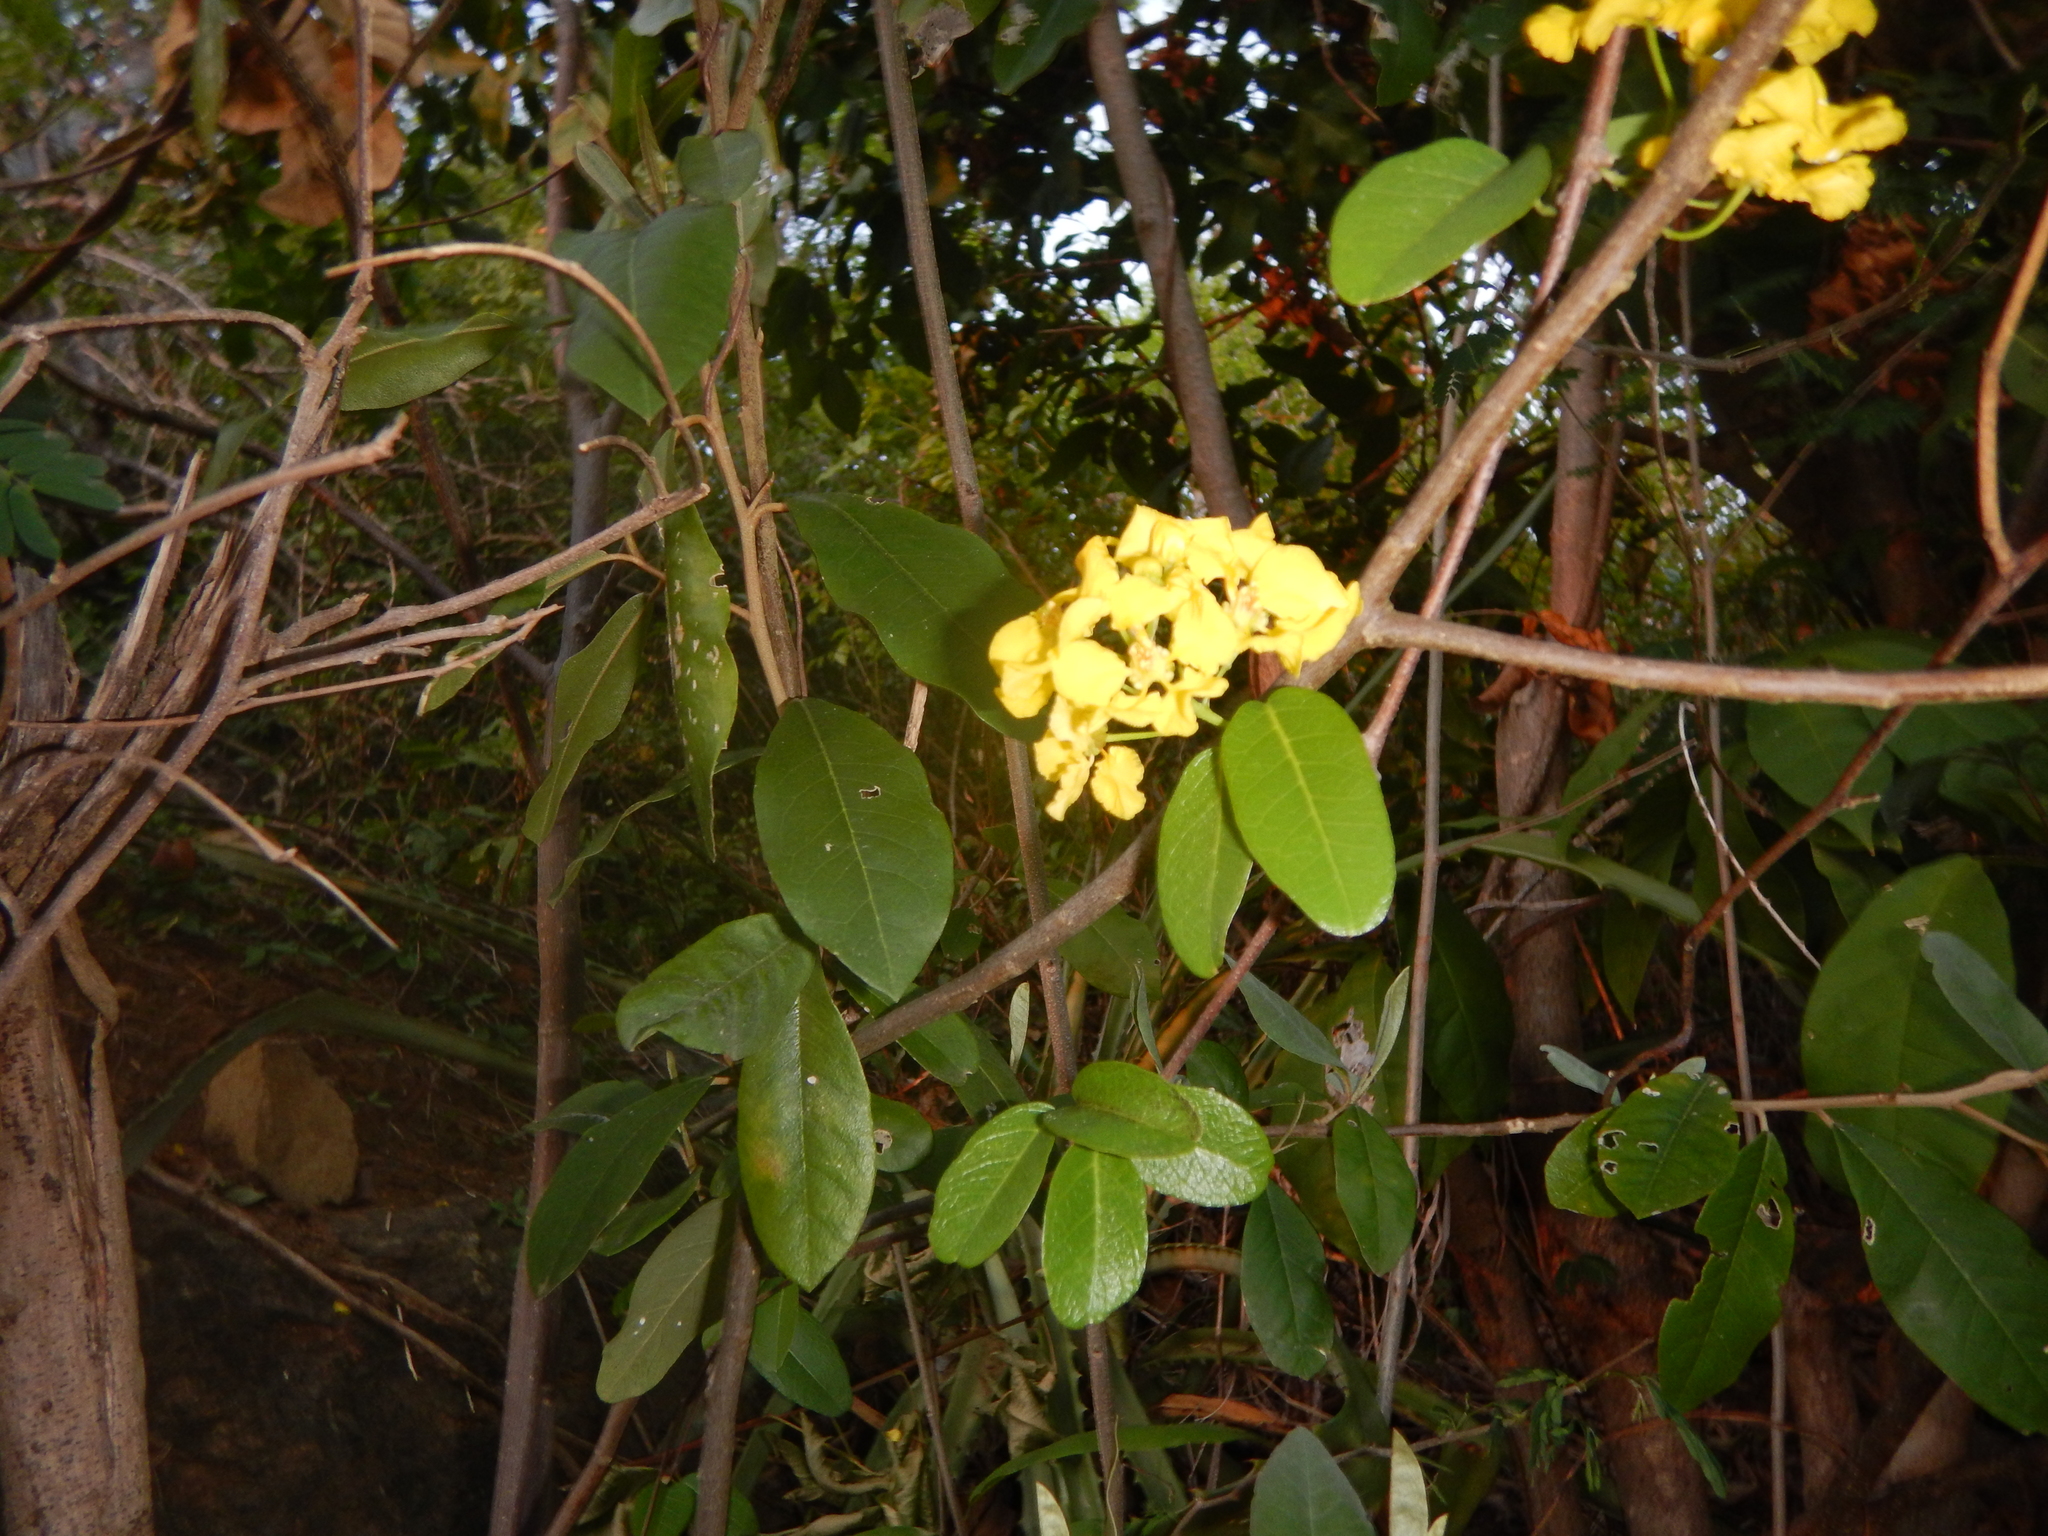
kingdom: Plantae
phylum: Tracheophyta
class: Magnoliopsida
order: Malpighiales
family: Malpighiaceae
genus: Stigmaphyllon
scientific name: Stigmaphyllon emarginatum
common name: Monarch amazonvine
